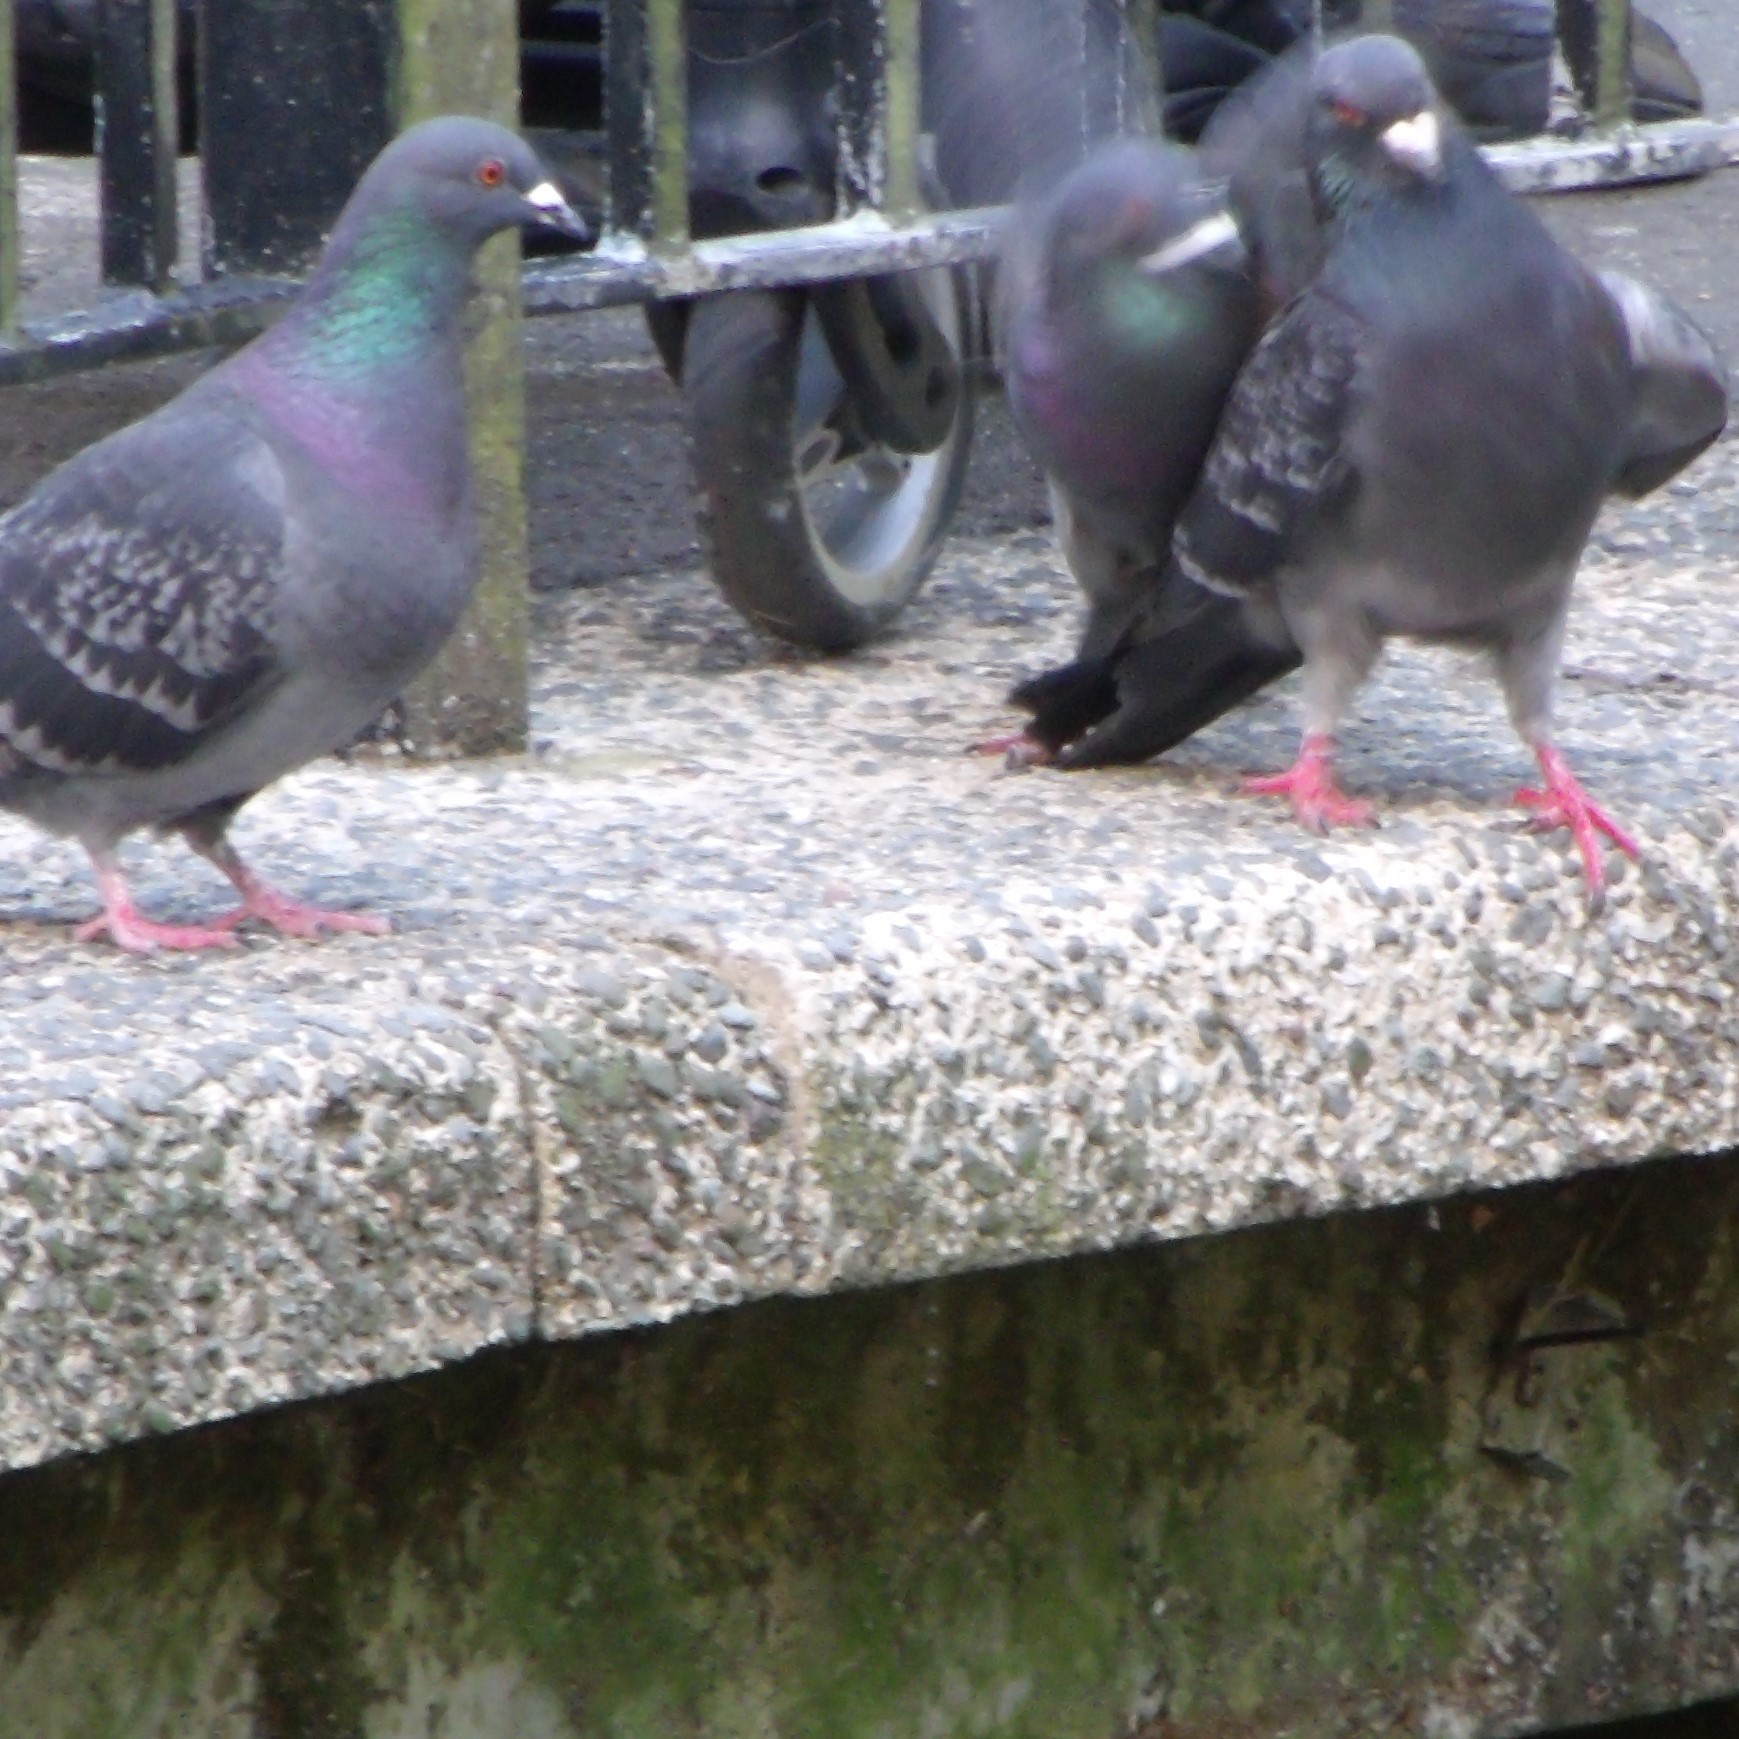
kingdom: Animalia
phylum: Chordata
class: Aves
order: Columbiformes
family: Columbidae
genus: Columba
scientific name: Columba livia
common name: Rock pigeon
